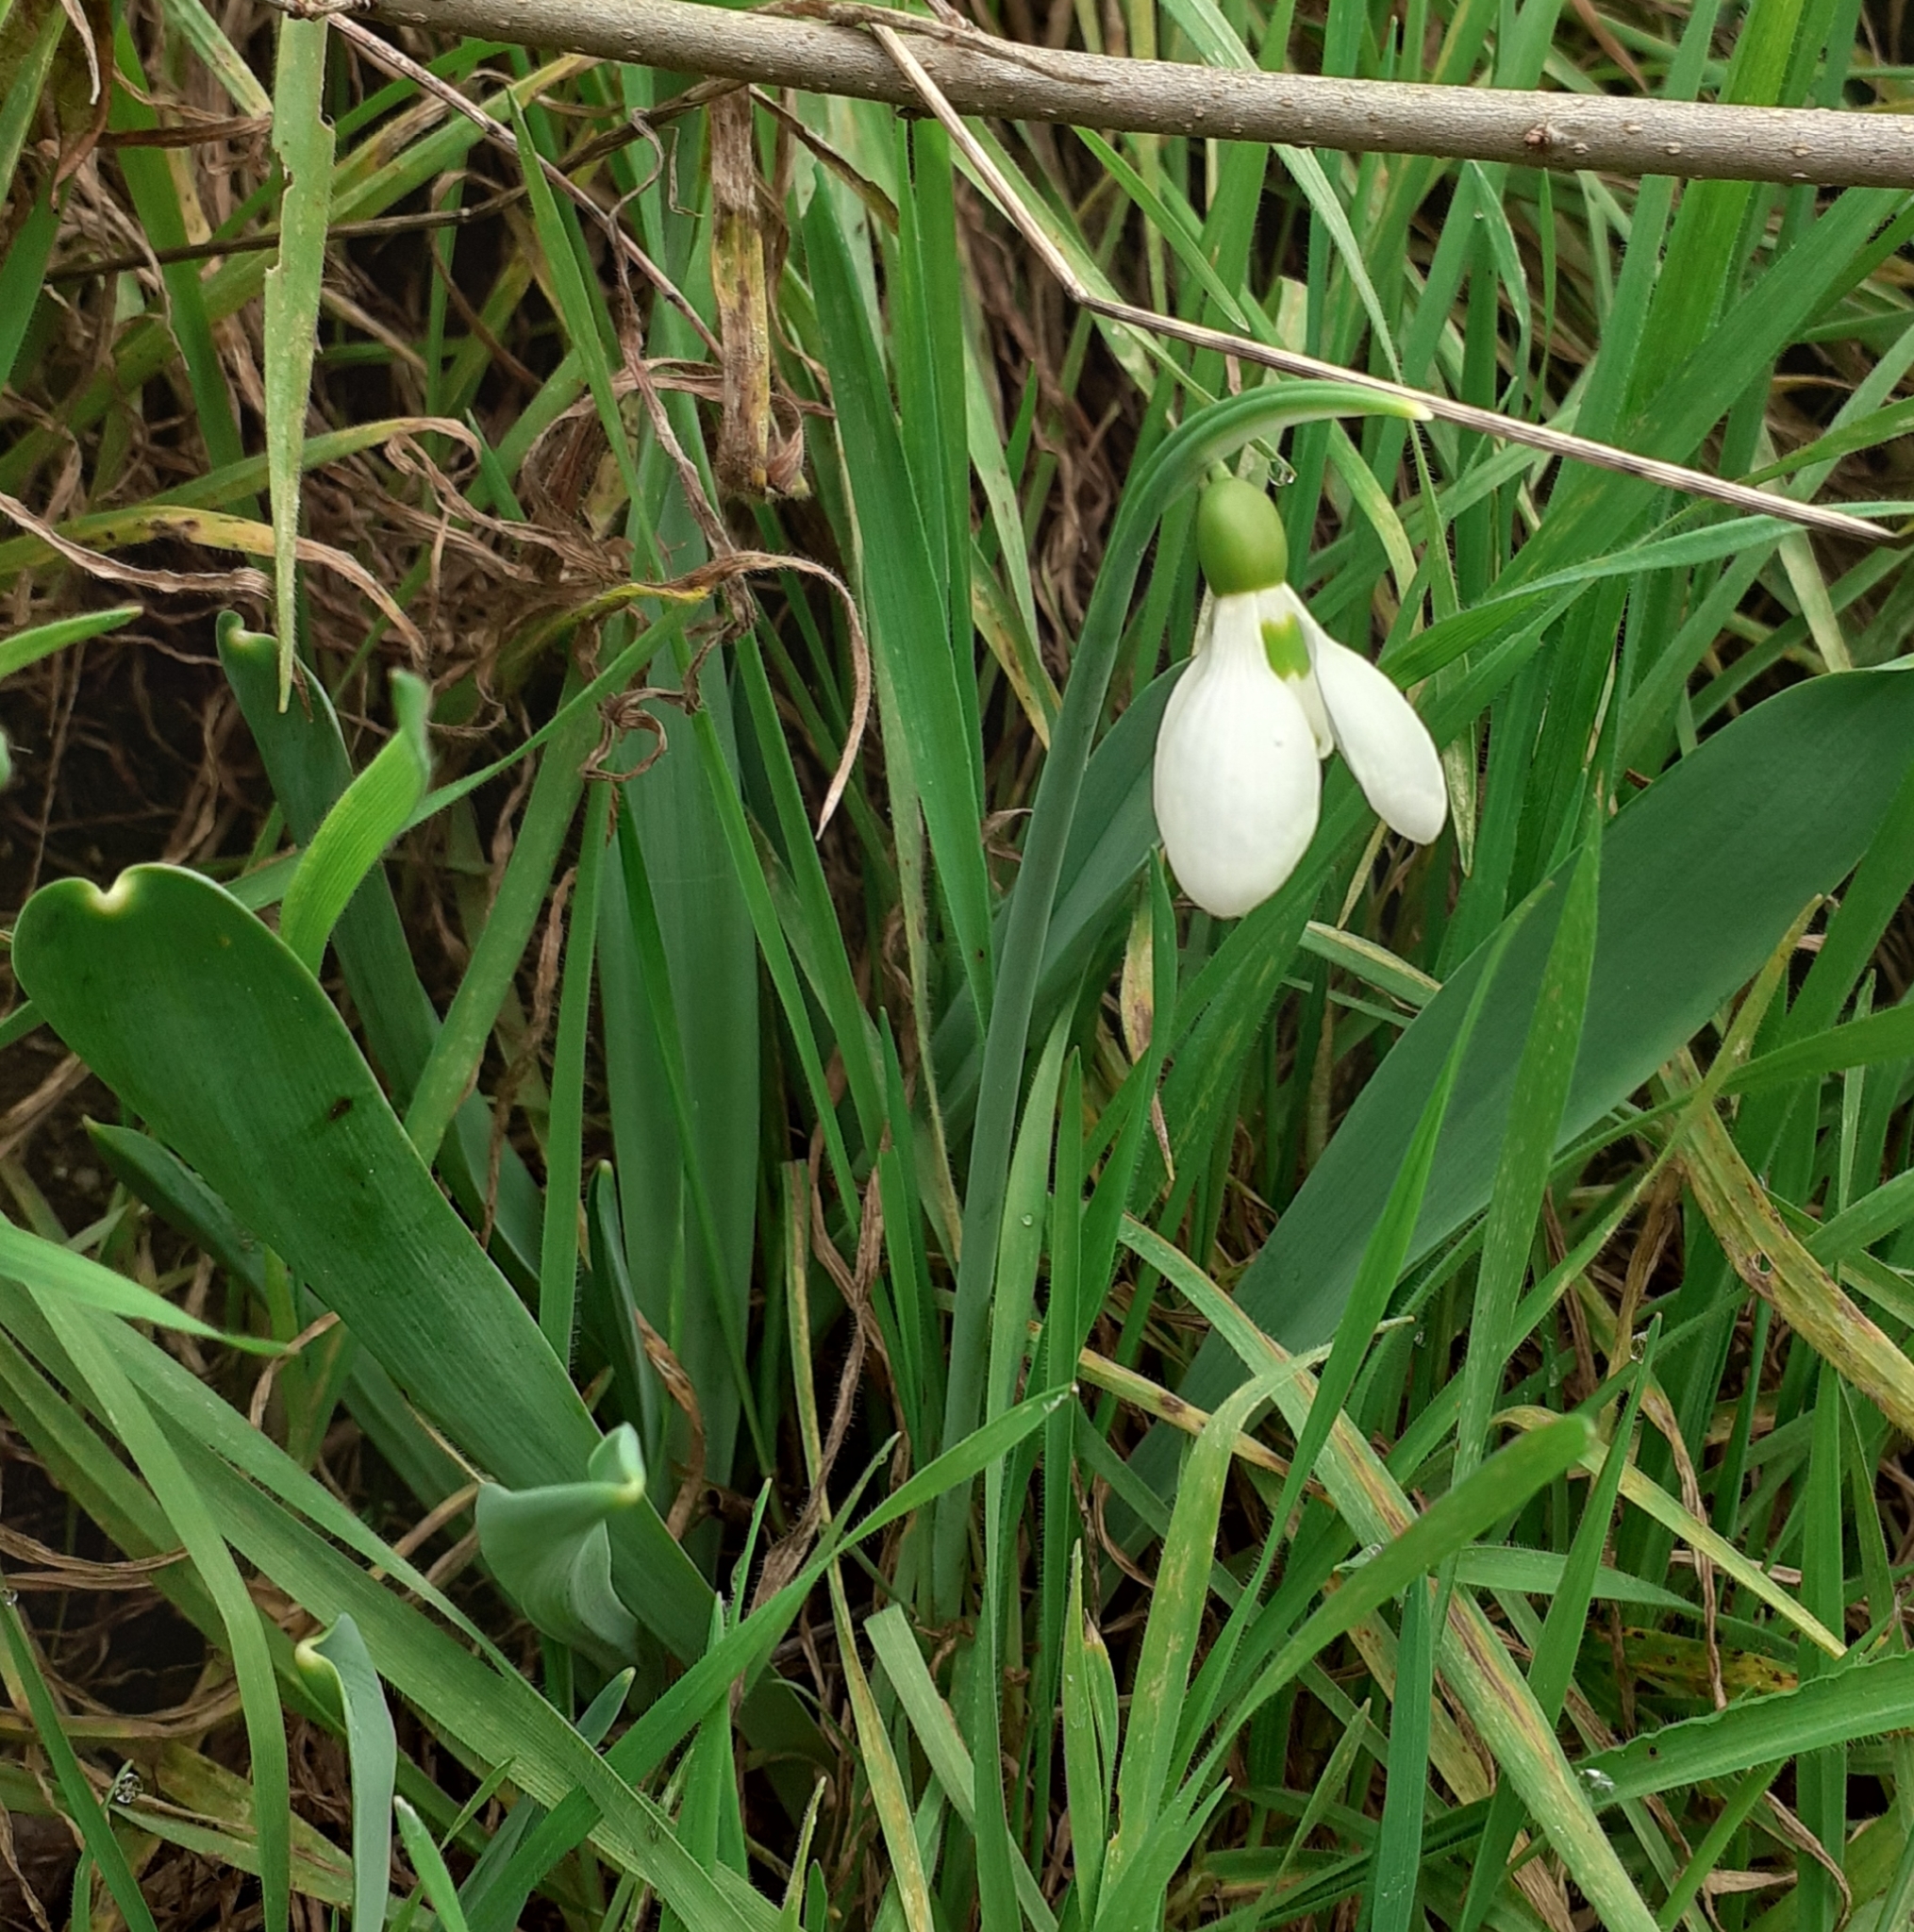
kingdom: Plantae
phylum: Tracheophyta
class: Liliopsida
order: Asparagales
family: Amaryllidaceae
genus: Galanthus
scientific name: Galanthus elwesii
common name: Greater snowdrop
